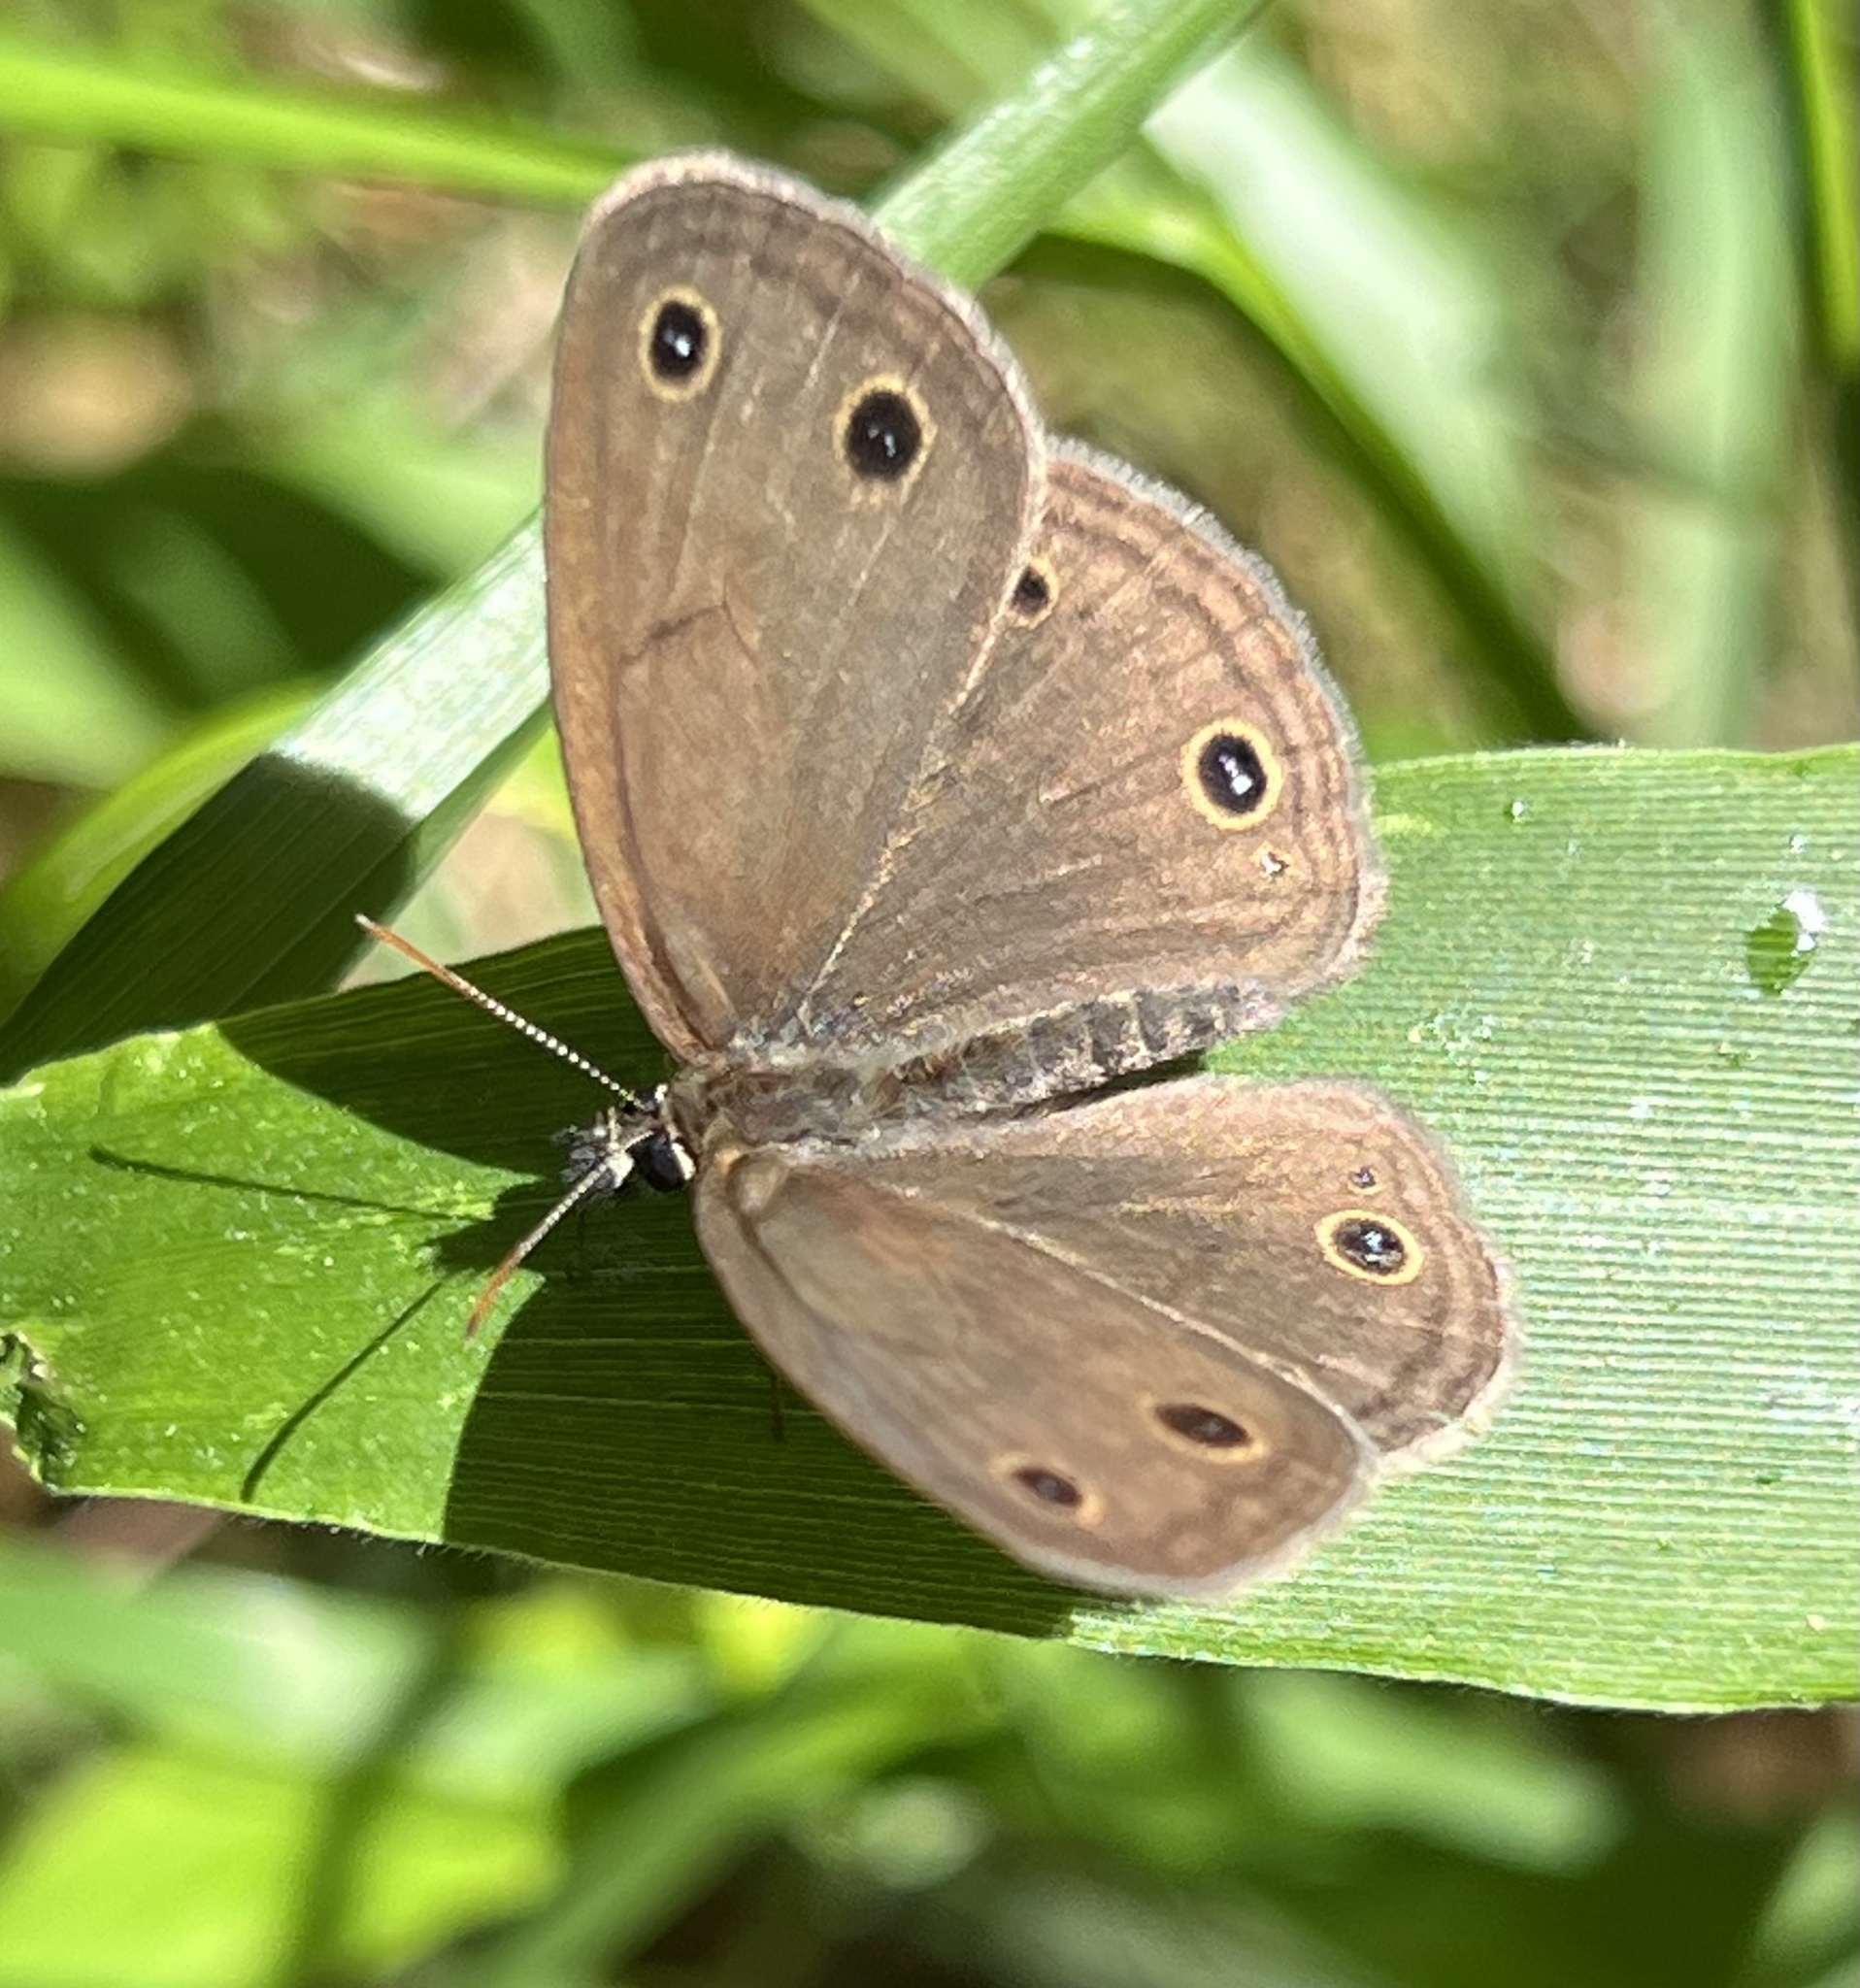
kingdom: Animalia
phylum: Arthropoda
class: Insecta
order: Lepidoptera
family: Nymphalidae
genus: Euptychia
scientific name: Euptychia cymela
